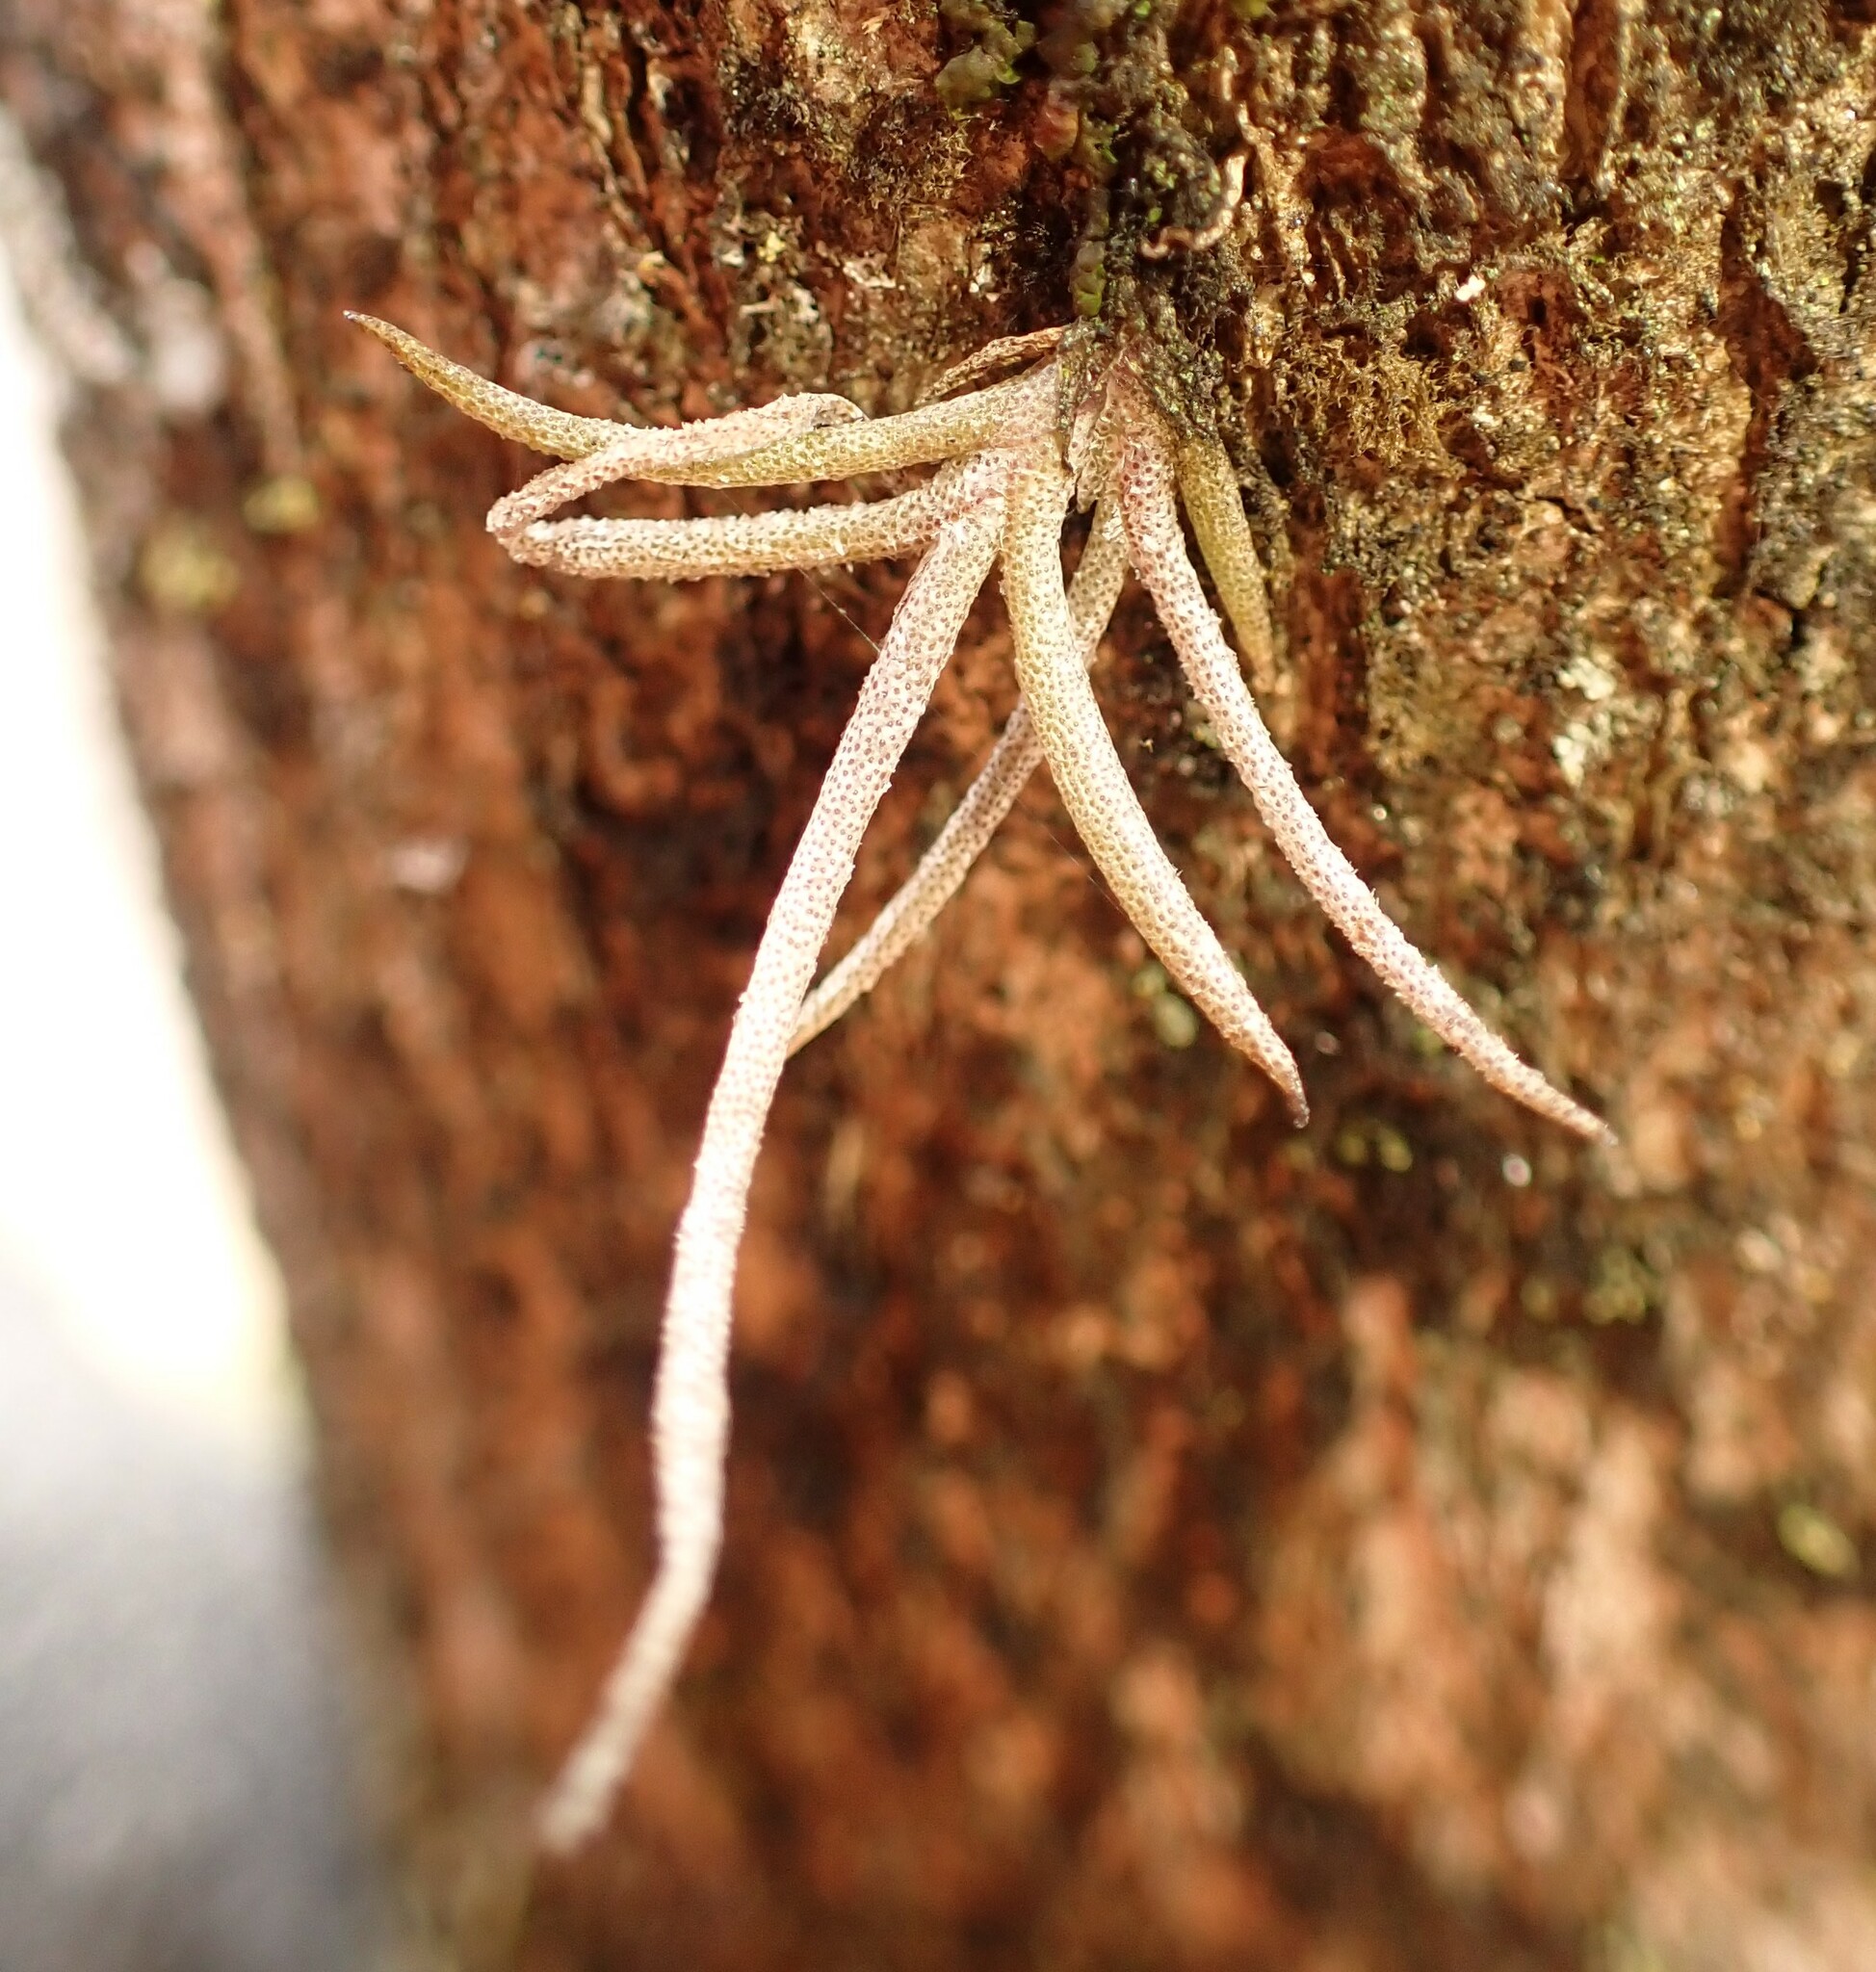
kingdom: Plantae
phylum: Tracheophyta
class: Liliopsida
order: Poales
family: Bromeliaceae
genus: Tillandsia
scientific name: Tillandsia recurvata
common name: Small ballmoss
